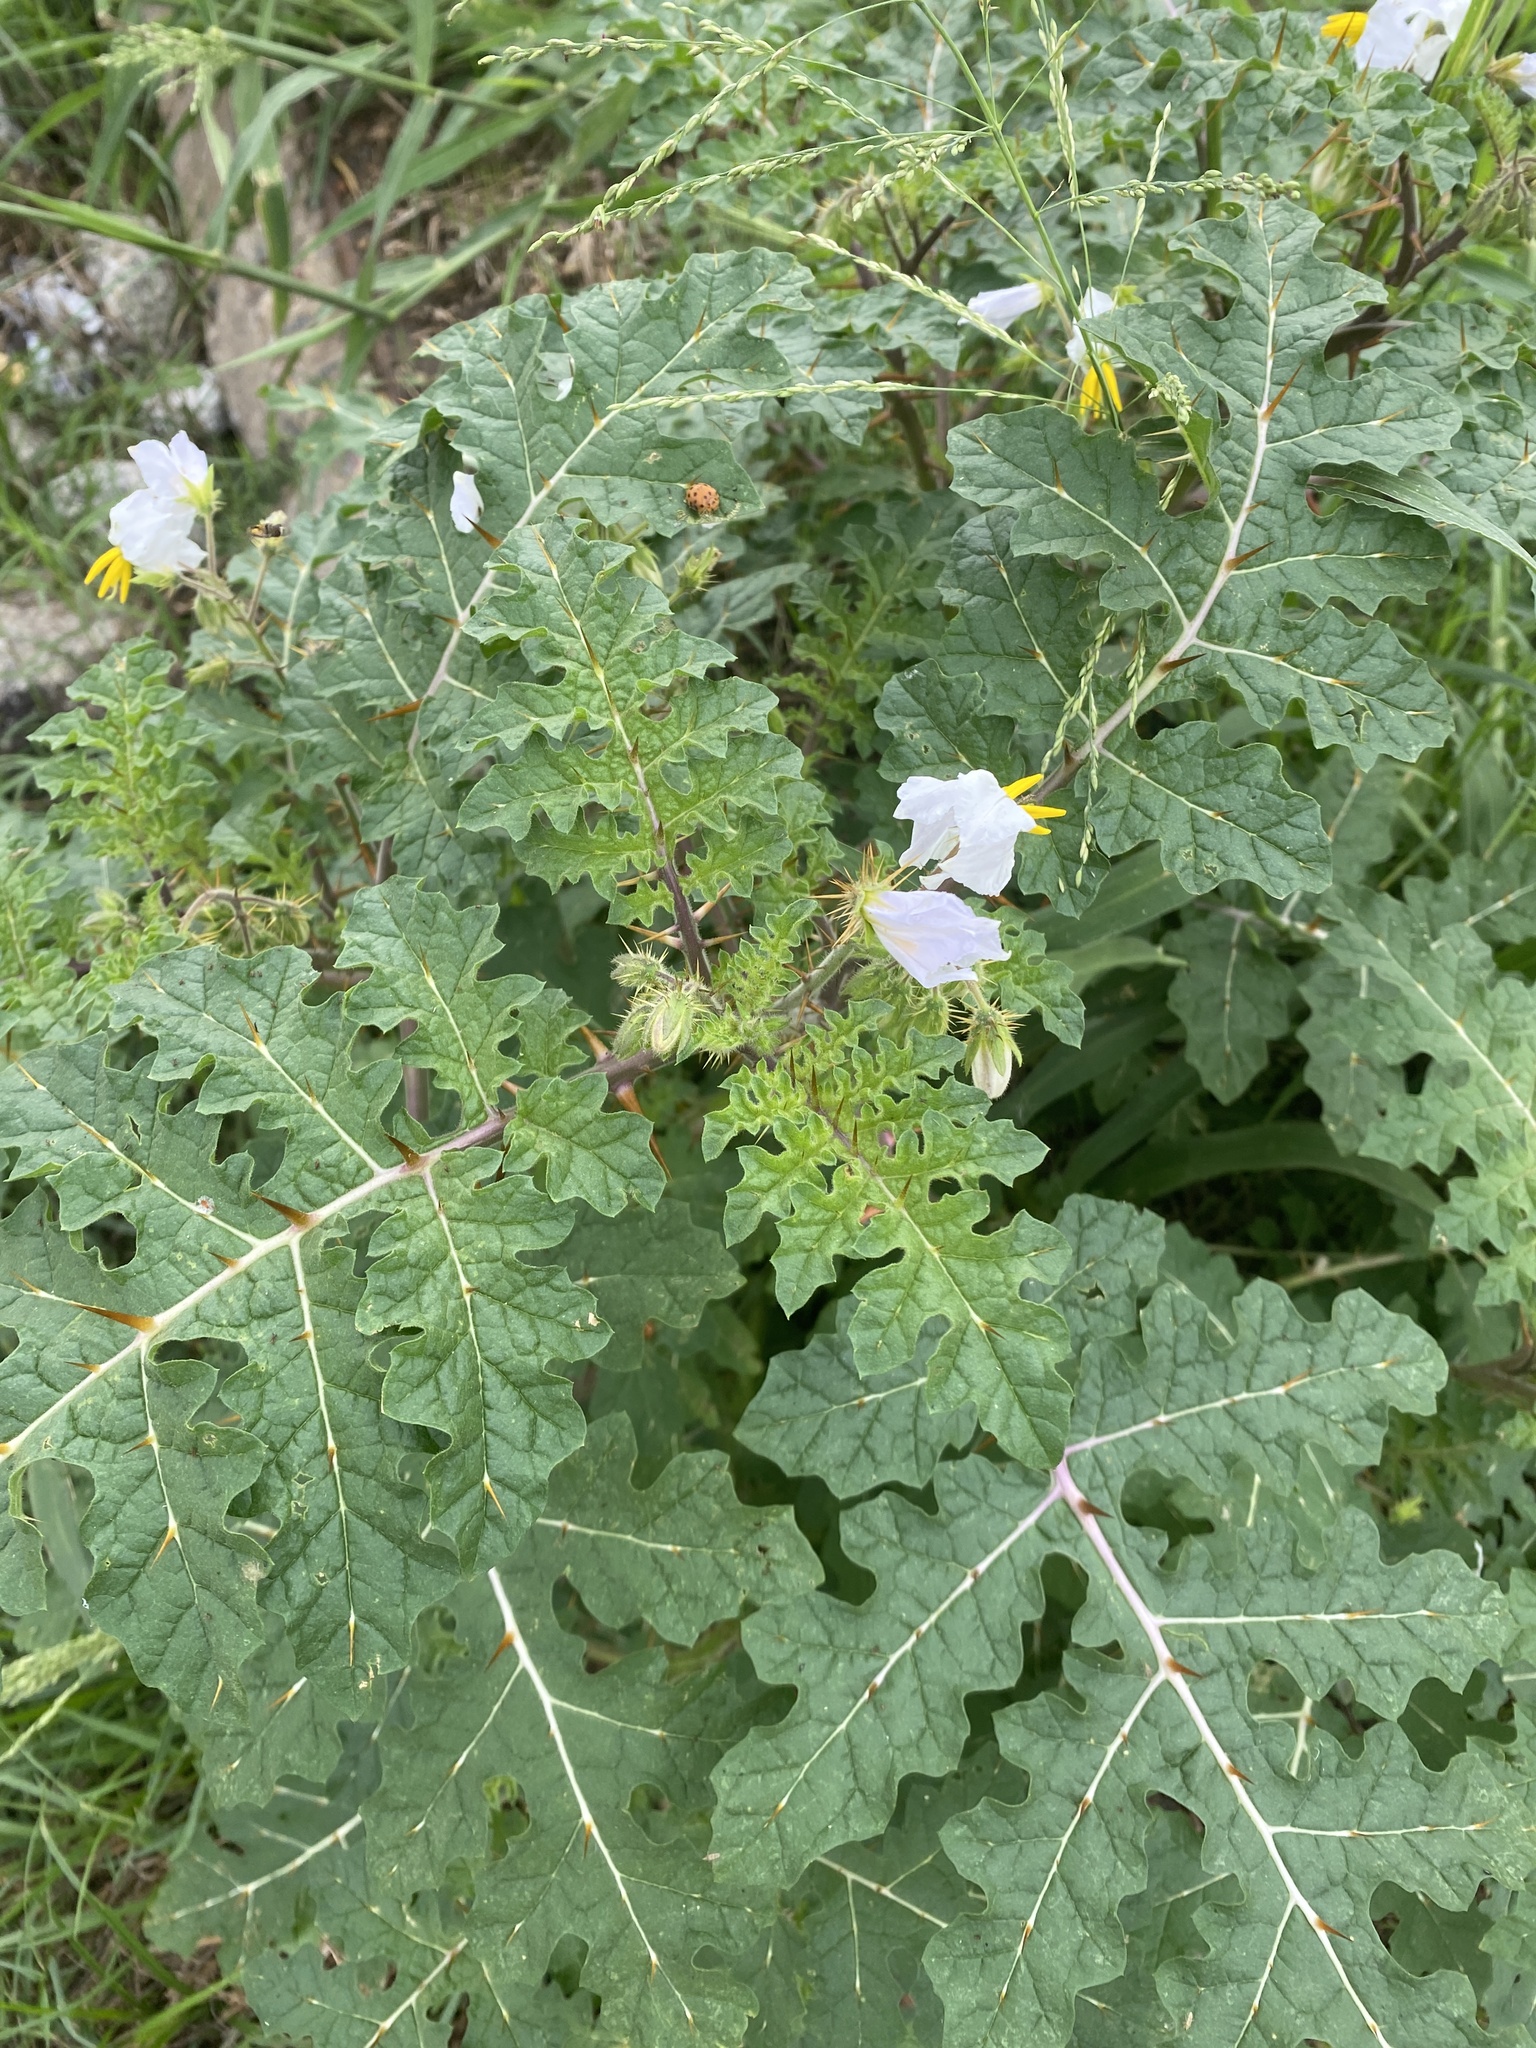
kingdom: Plantae
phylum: Tracheophyta
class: Magnoliopsida
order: Solanales
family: Solanaceae
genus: Solanum
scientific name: Solanum sisymbriifolium
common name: Red buffalo-bur
